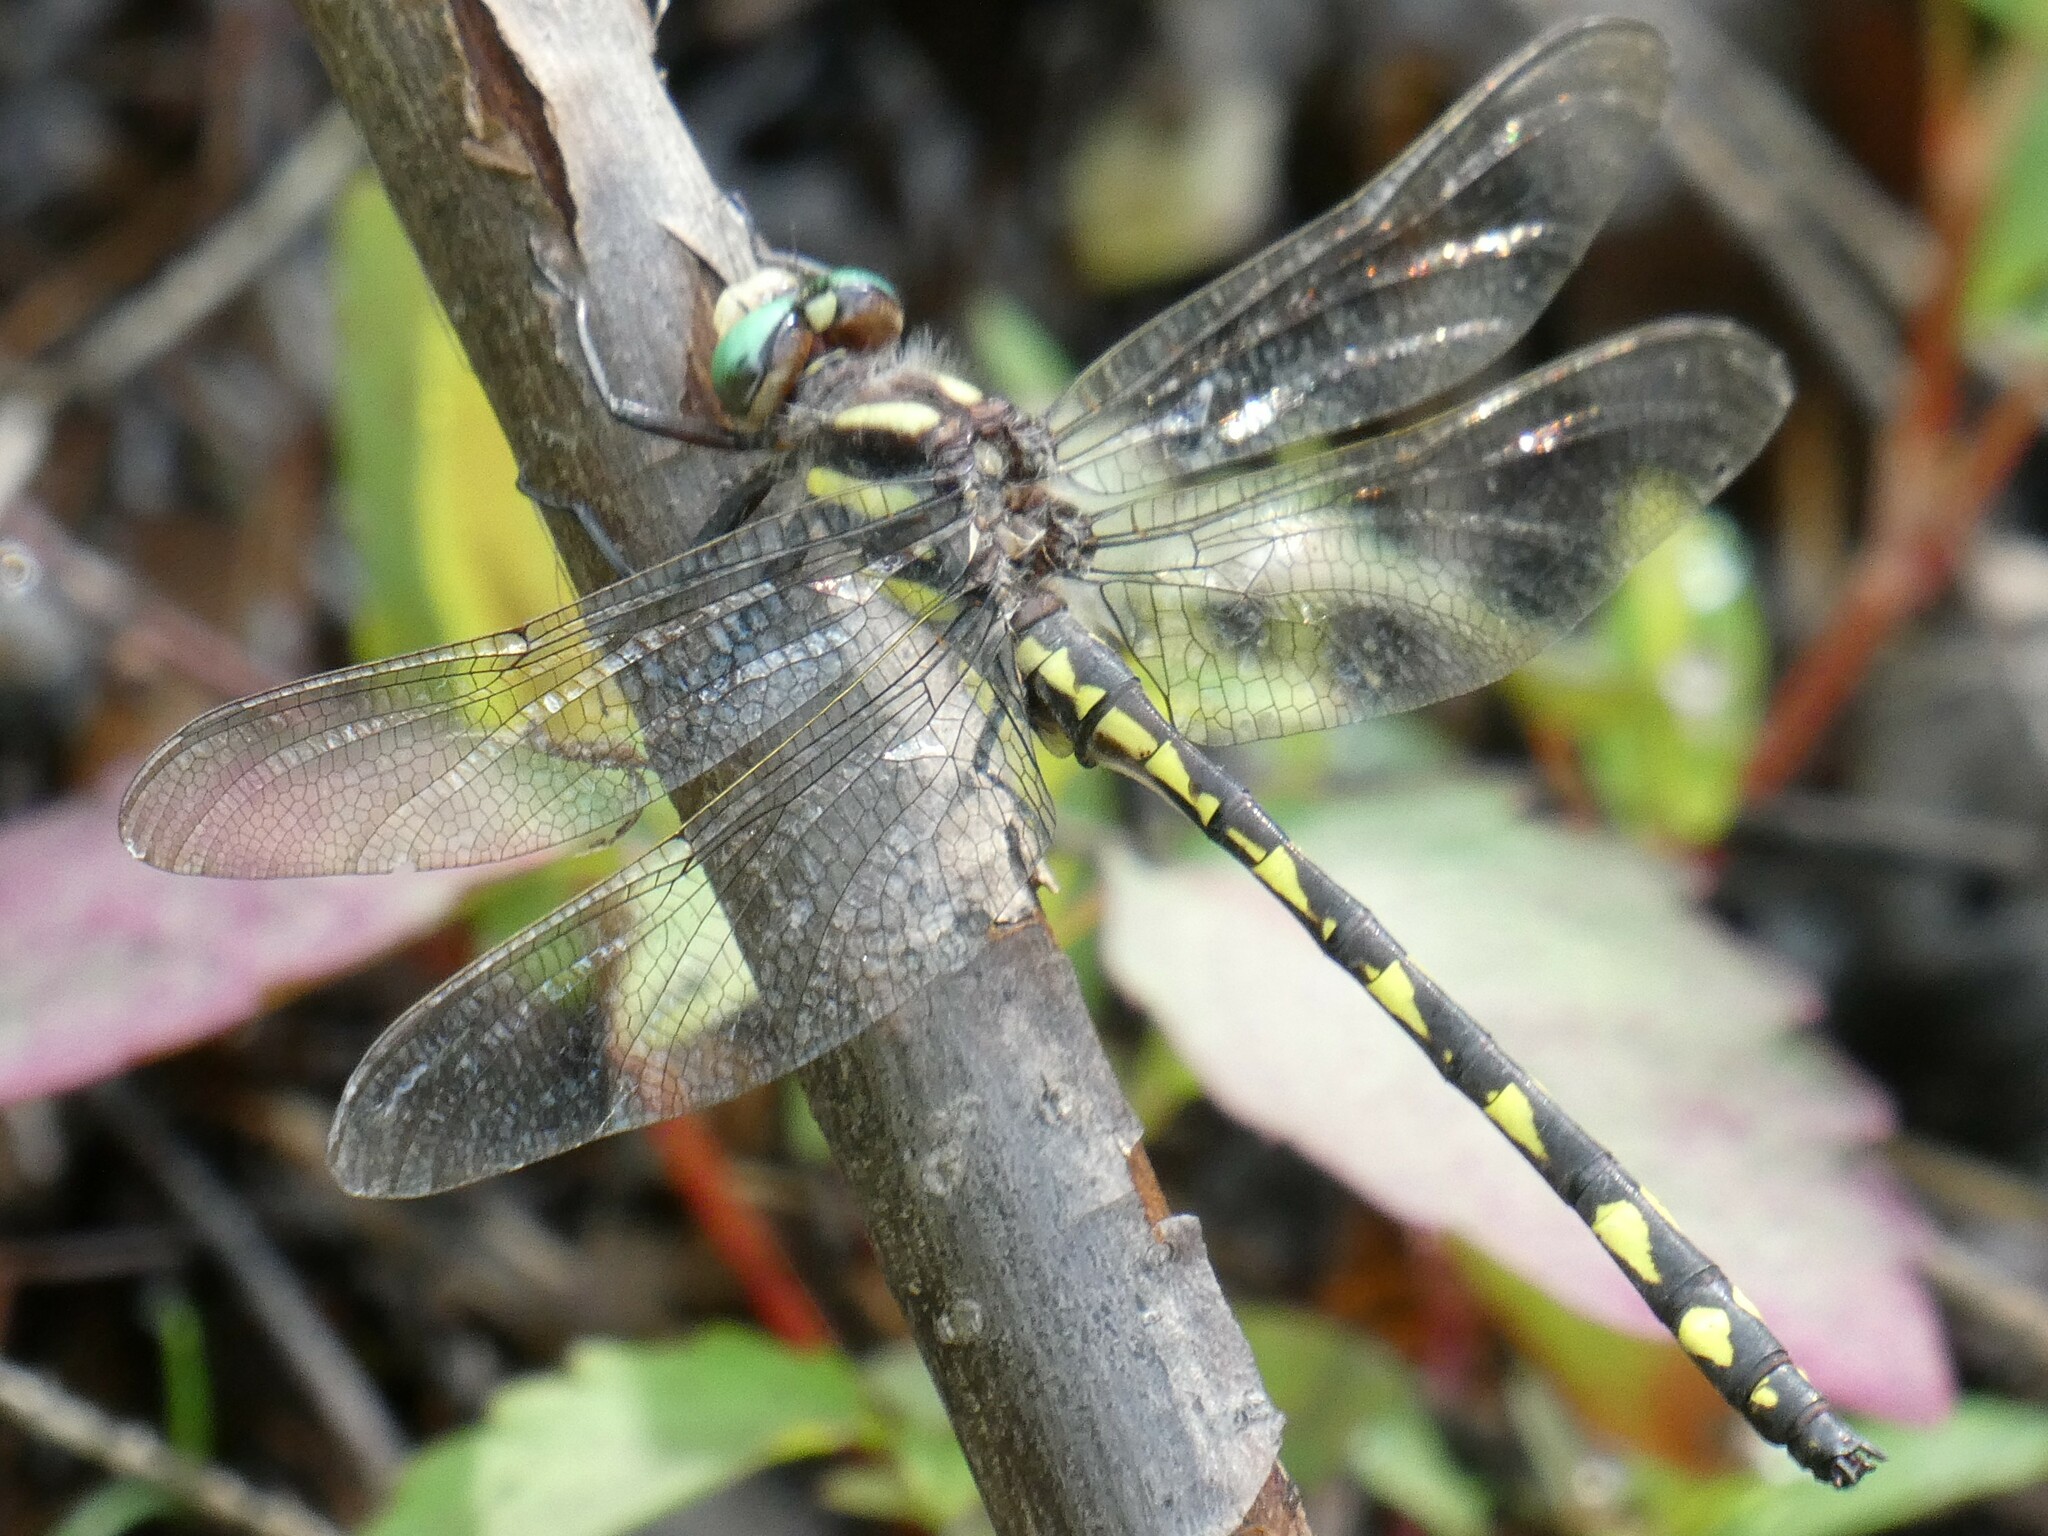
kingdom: Animalia
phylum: Arthropoda
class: Insecta
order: Odonata
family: Cordulegastridae
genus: Cordulegaster
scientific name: Cordulegaster diastatops
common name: Delta-spotted spiketail
